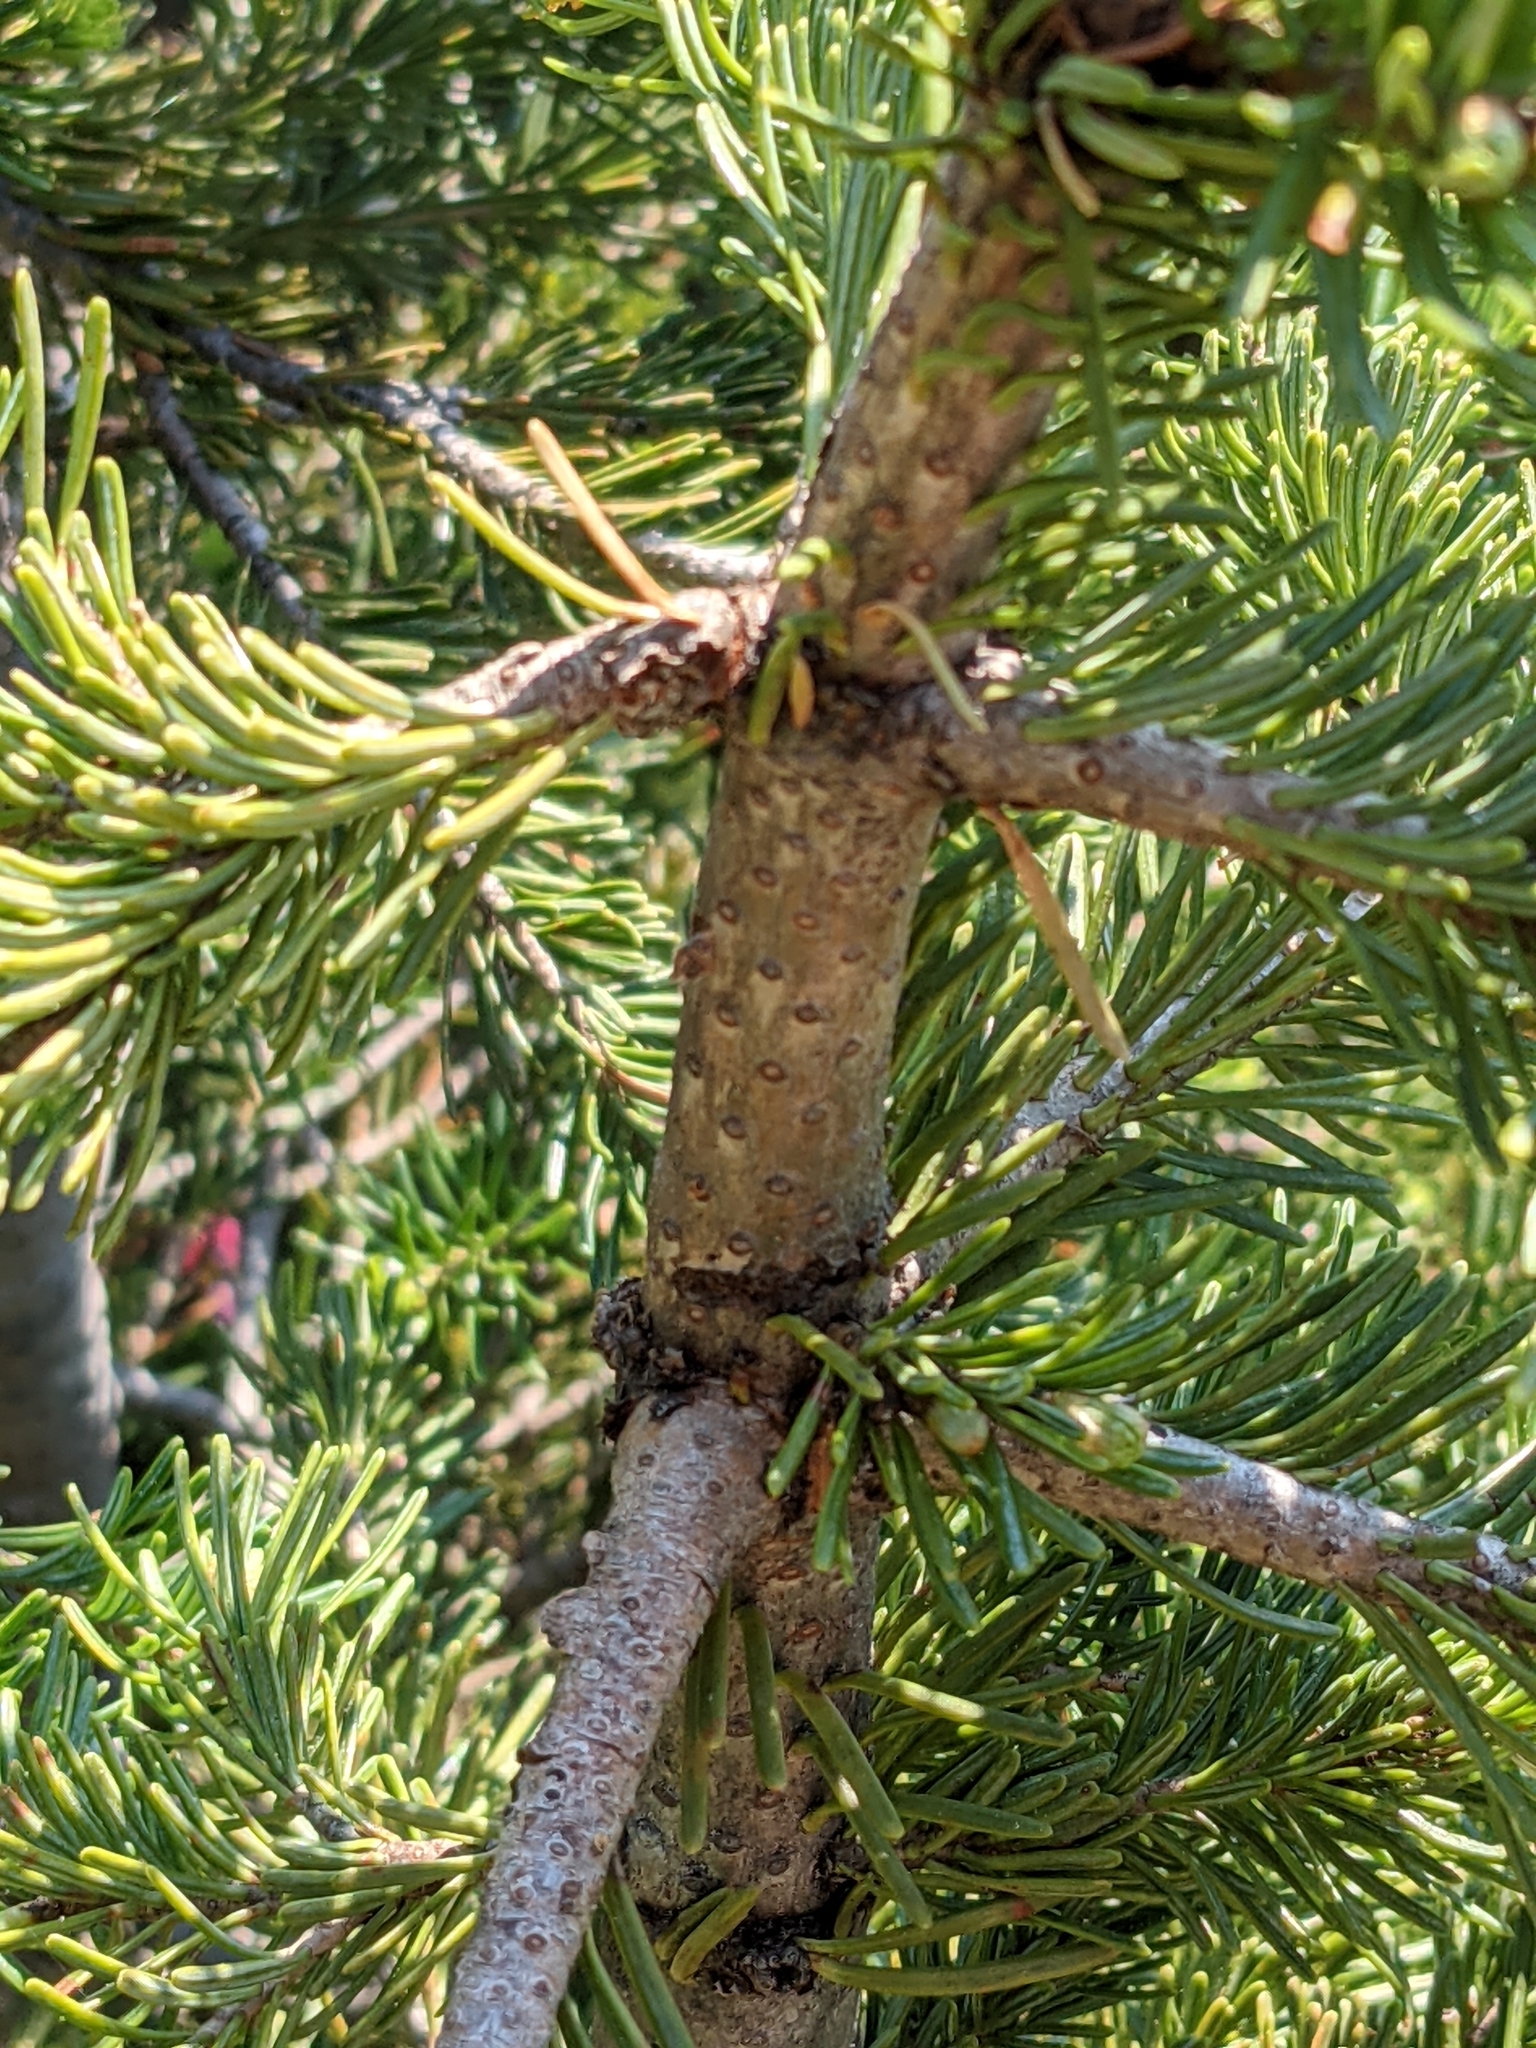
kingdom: Plantae
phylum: Tracheophyta
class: Pinopsida
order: Pinales
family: Pinaceae
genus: Abies
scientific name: Abies lasiocarpa
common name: Subalpine fir
